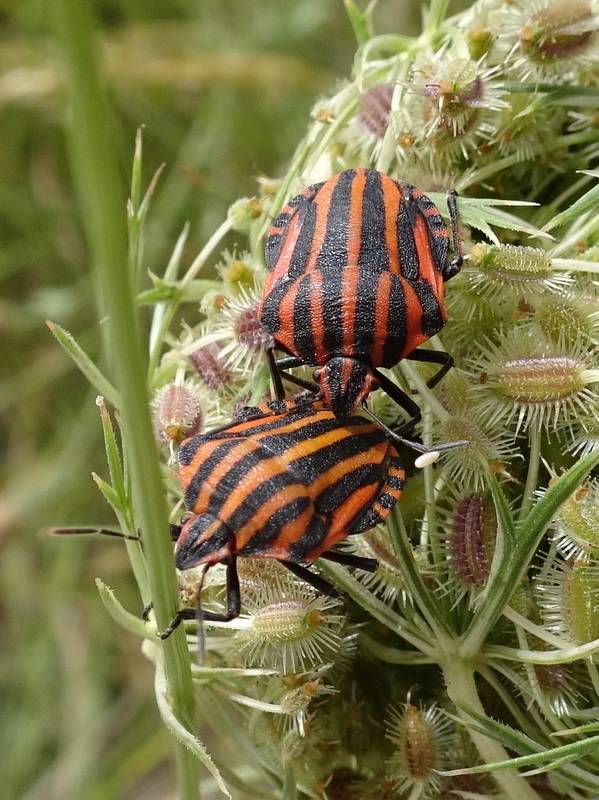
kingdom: Animalia
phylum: Arthropoda
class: Insecta
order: Hemiptera
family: Pentatomidae
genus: Graphosoma
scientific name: Graphosoma italicum
